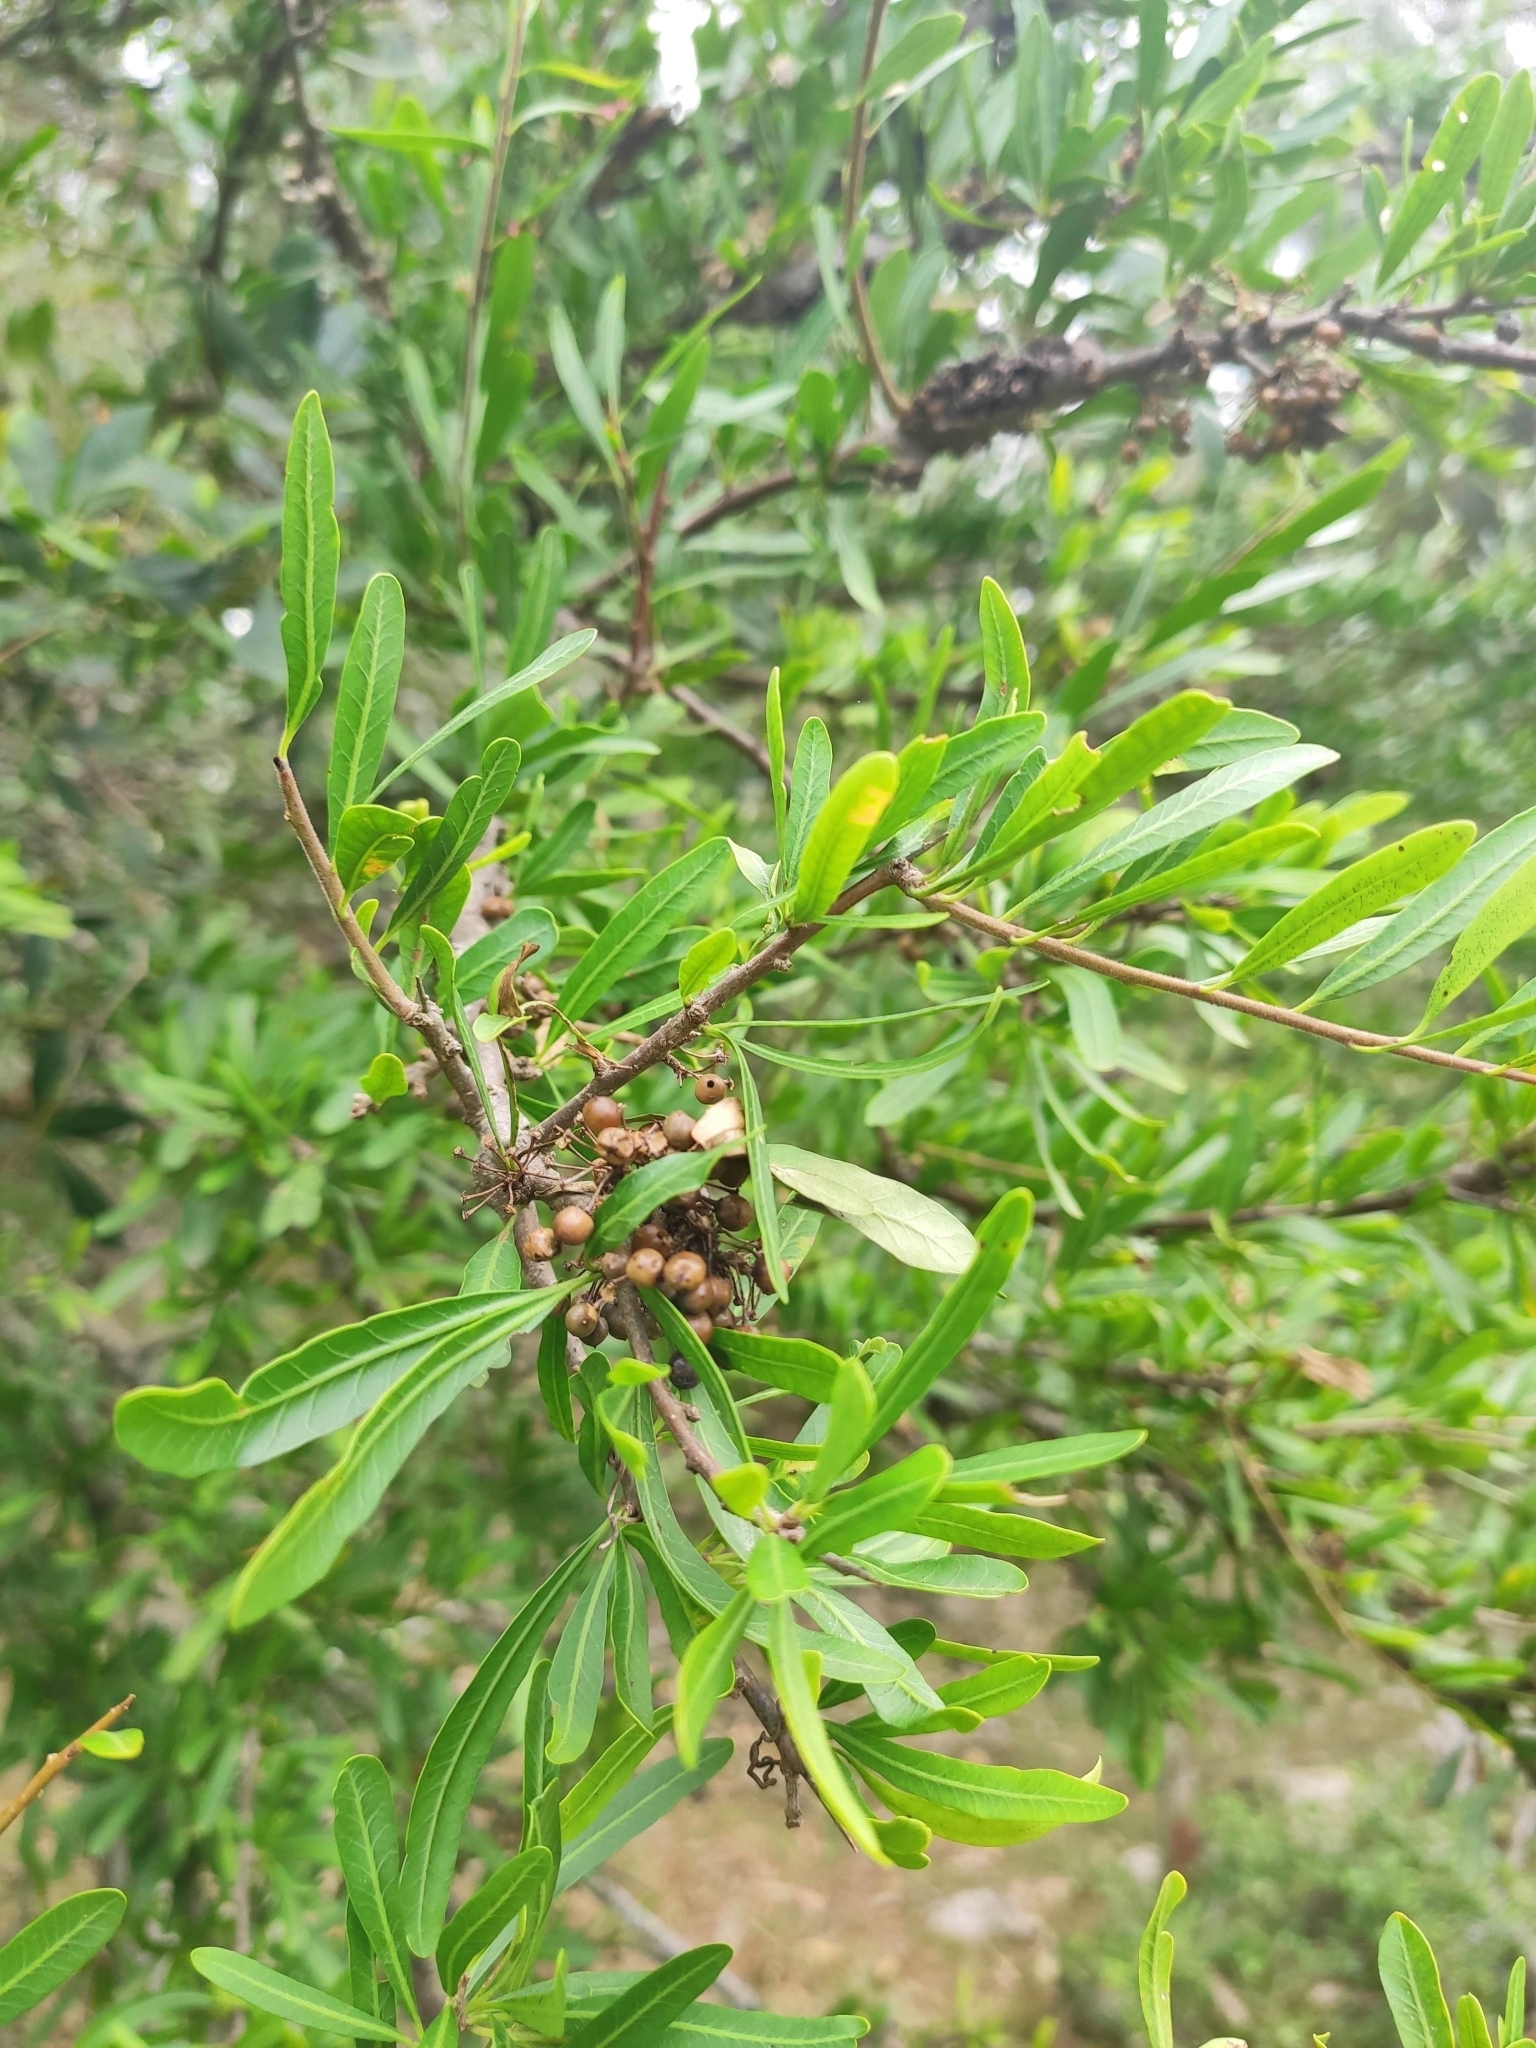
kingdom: Plantae
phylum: Tracheophyta
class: Magnoliopsida
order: Sapindales
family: Anacardiaceae
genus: Schinus
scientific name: Schinus longifolia
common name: Longleaf peppertree
